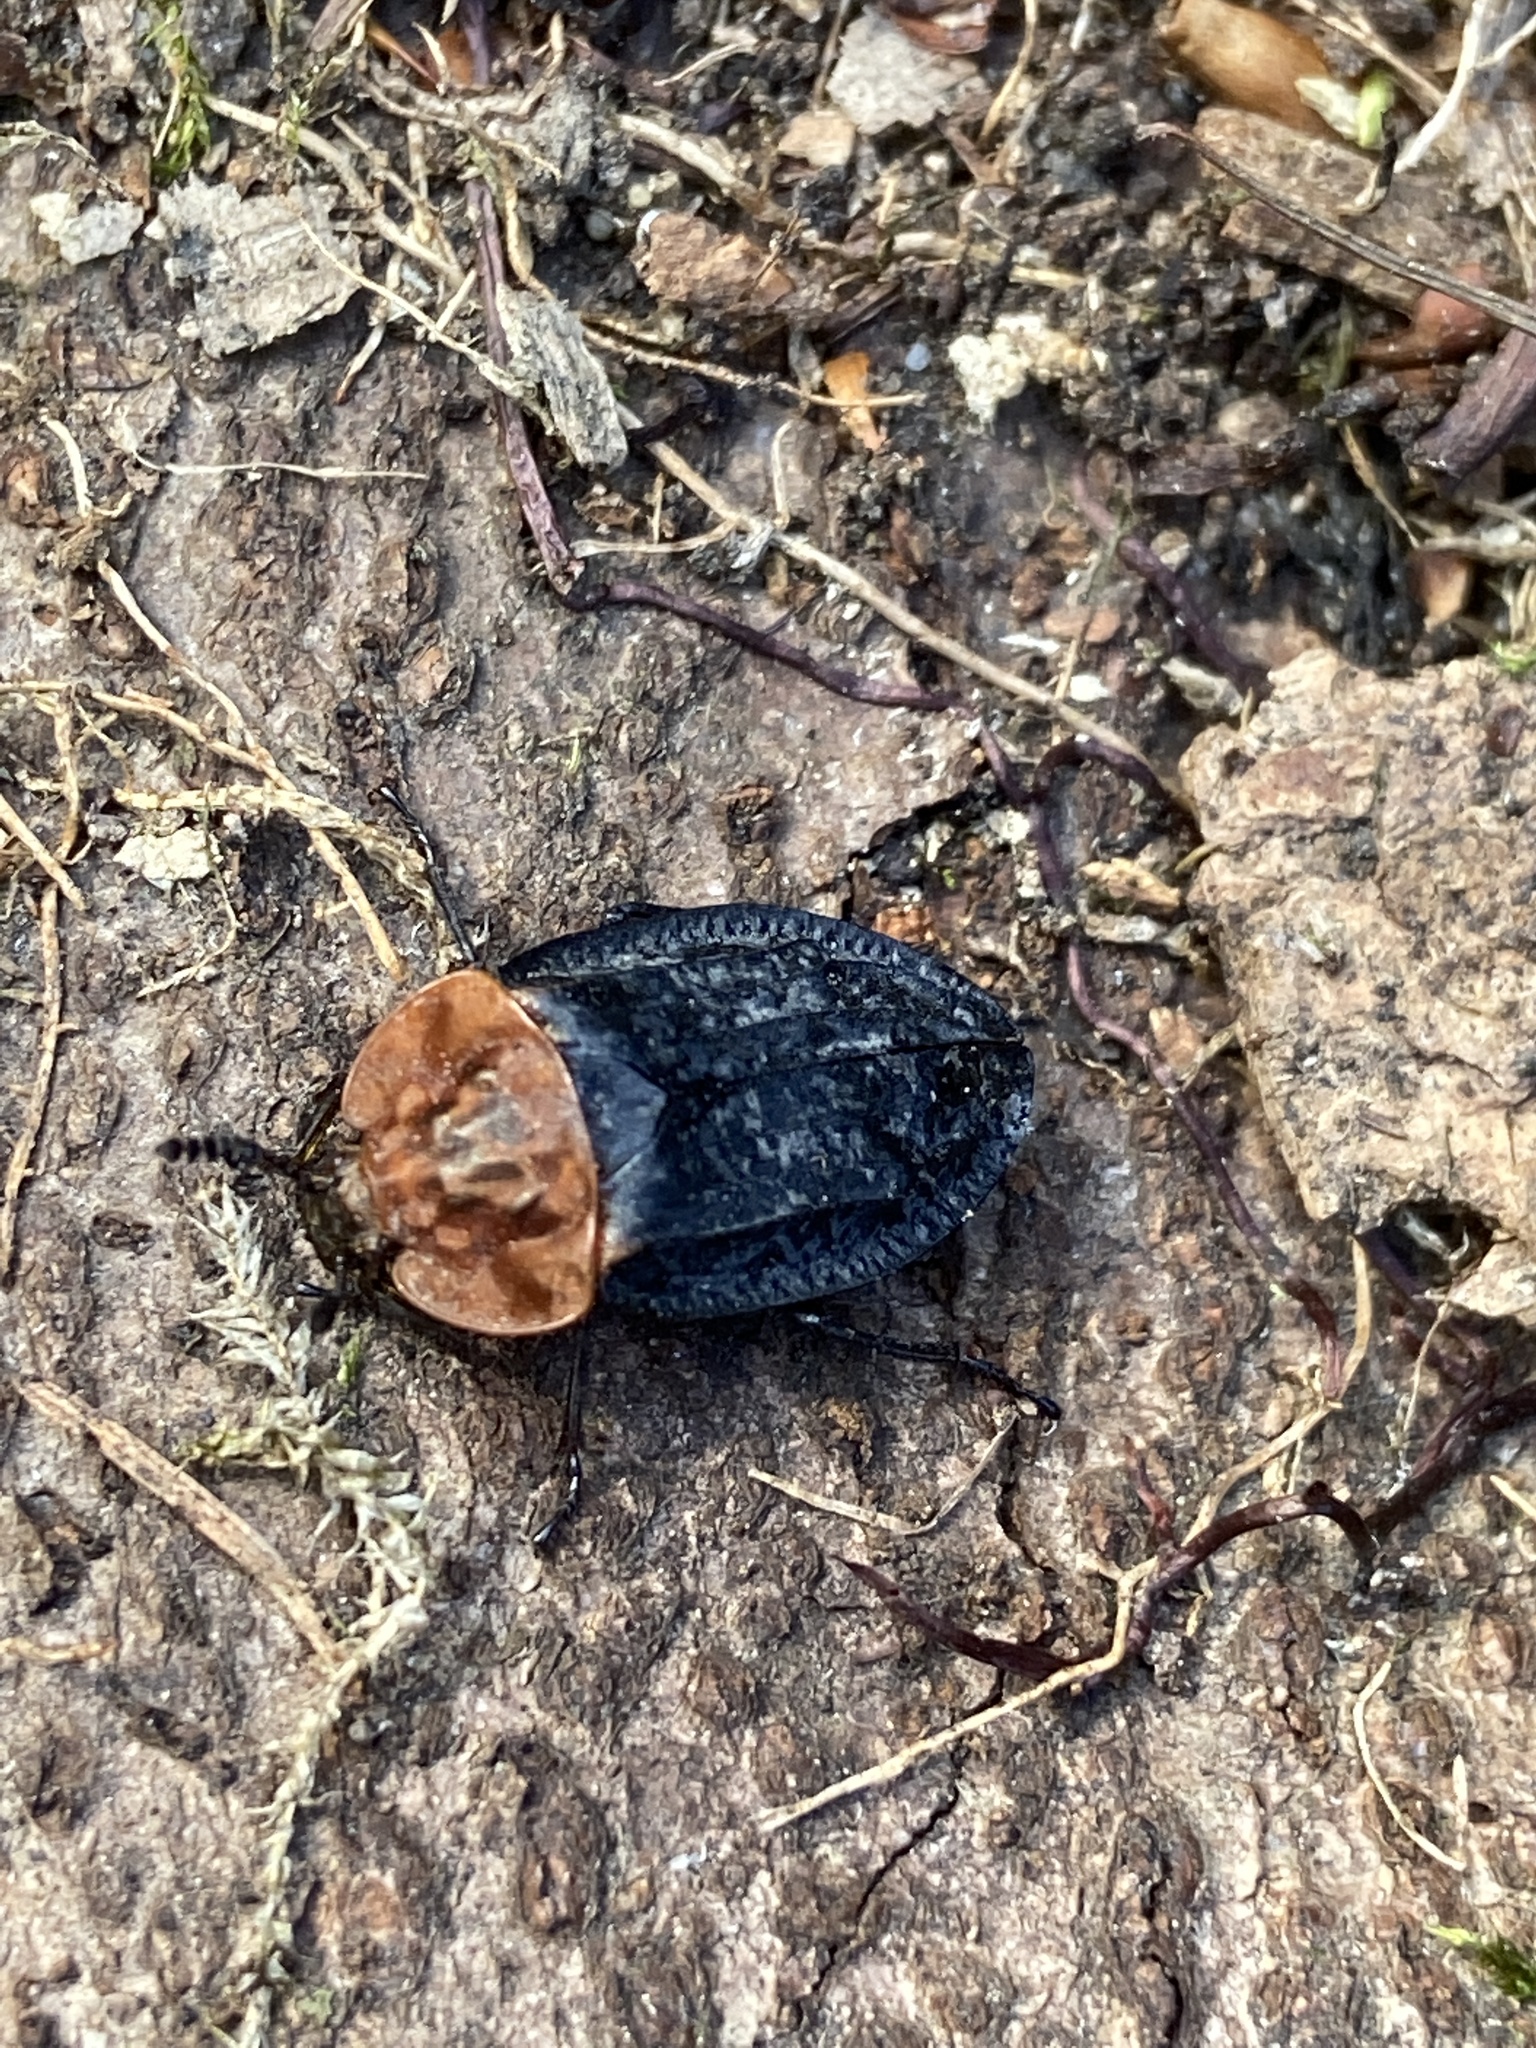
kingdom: Animalia
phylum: Arthropoda
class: Insecta
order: Coleoptera
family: Staphylinidae
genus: Oiceoptoma
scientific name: Oiceoptoma thoracicum
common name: Red-breasted carrion beetle
